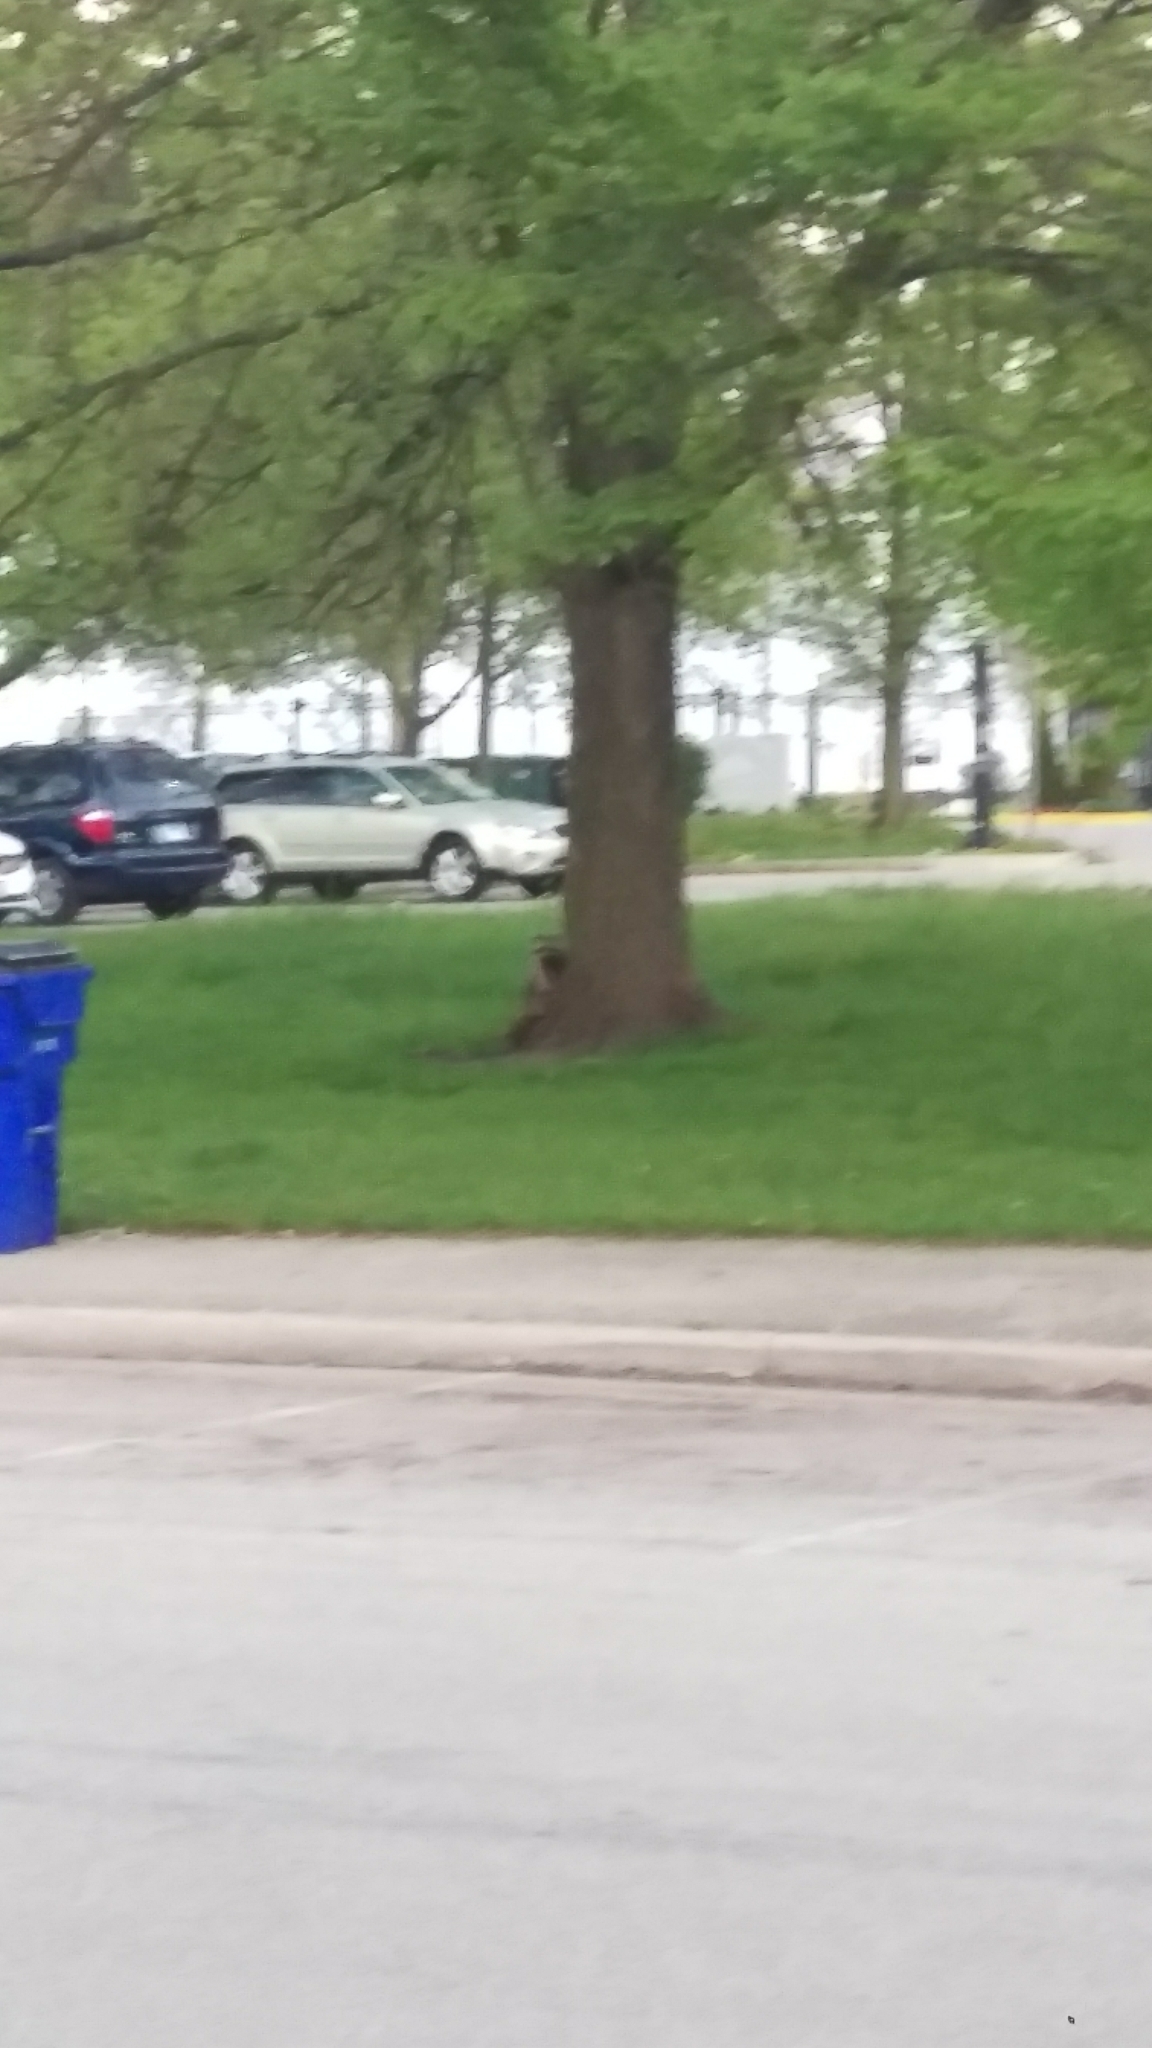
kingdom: Animalia
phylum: Chordata
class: Mammalia
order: Carnivora
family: Procyonidae
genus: Procyon
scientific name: Procyon lotor
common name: Raccoon
